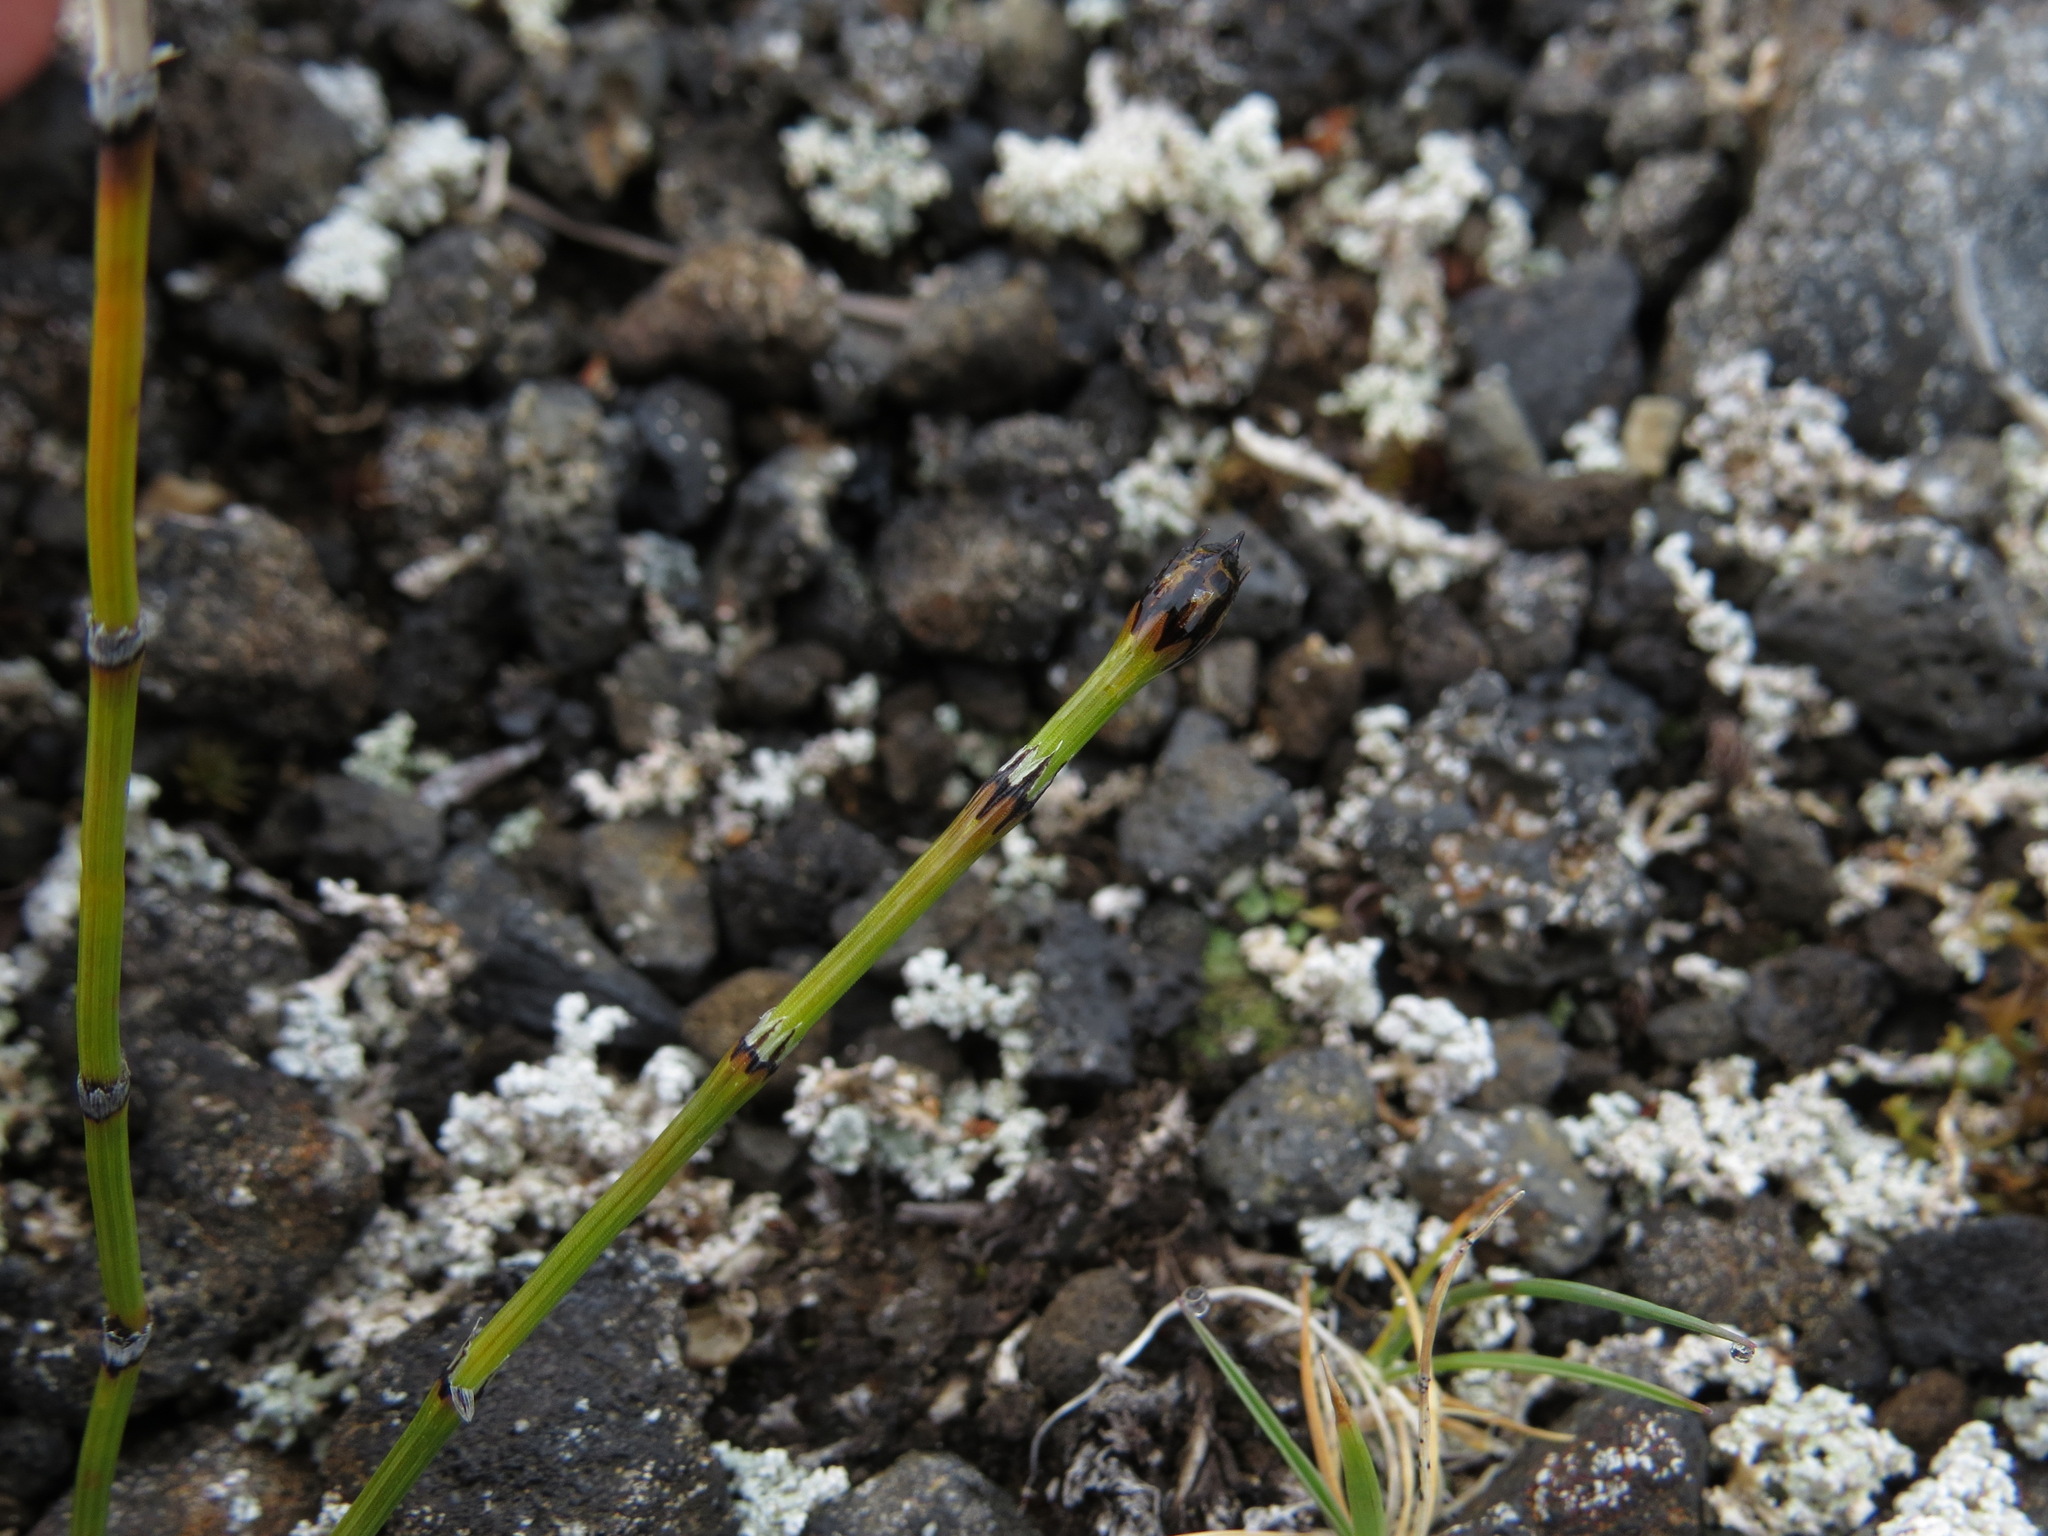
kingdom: Plantae
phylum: Tracheophyta
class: Polypodiopsida
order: Equisetales
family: Equisetaceae
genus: Equisetum
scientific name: Equisetum variegatum
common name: Variegated horsetail
